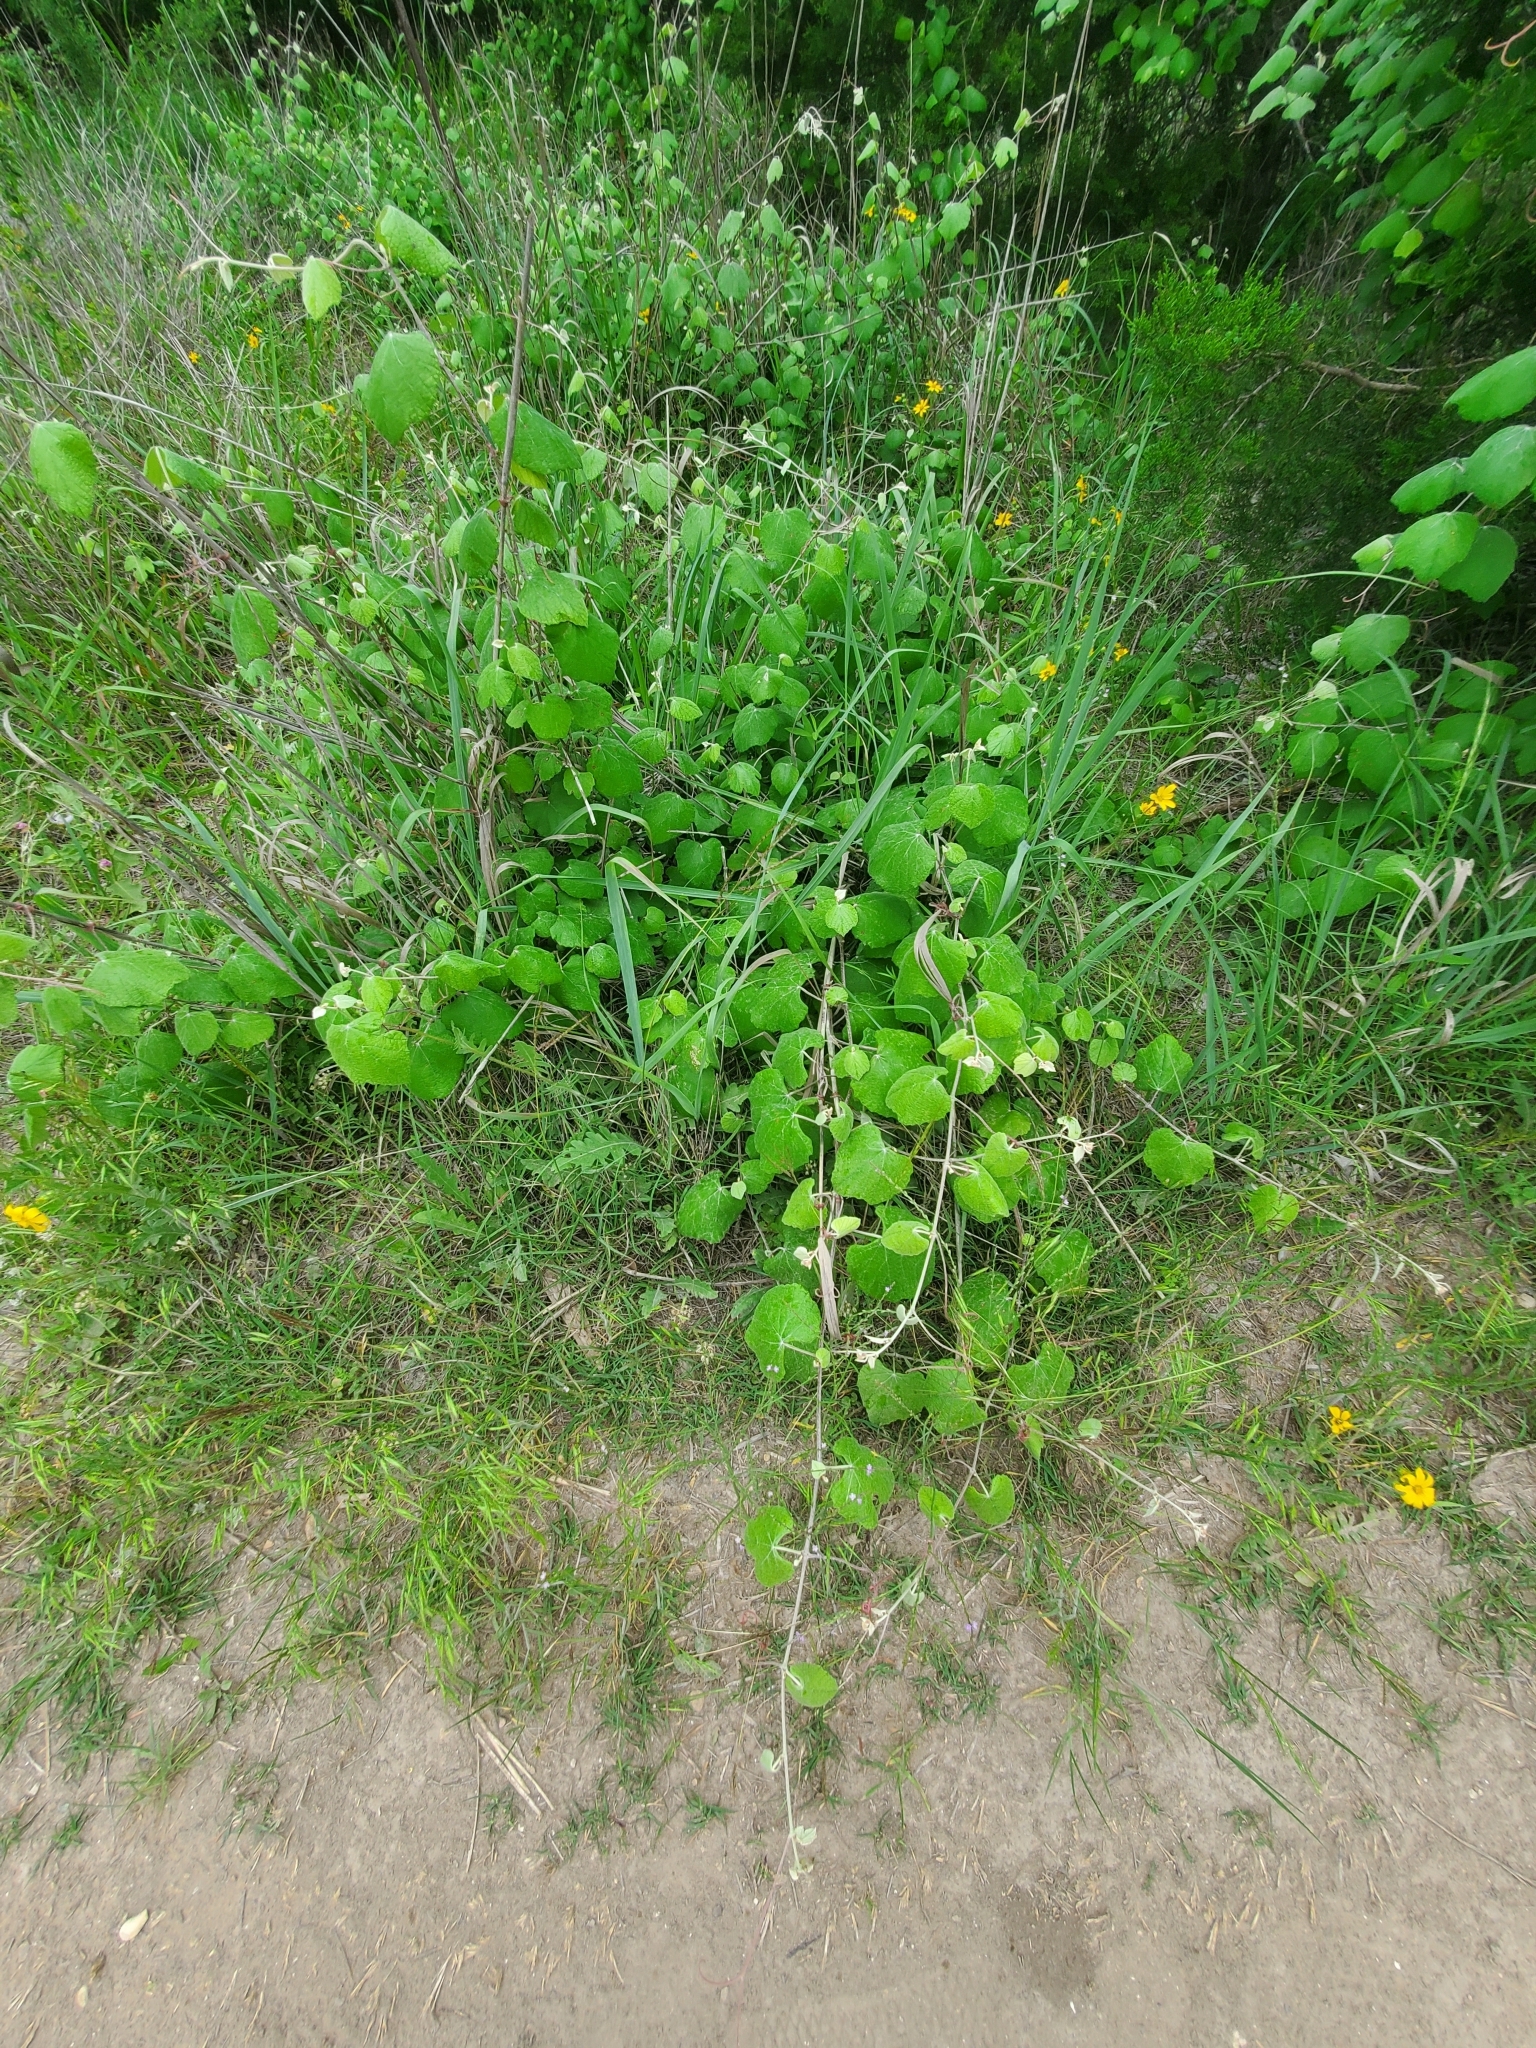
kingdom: Plantae
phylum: Tracheophyta
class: Magnoliopsida
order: Vitales
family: Vitaceae
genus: Vitis
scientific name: Vitis mustangensis
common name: Mustang grape
